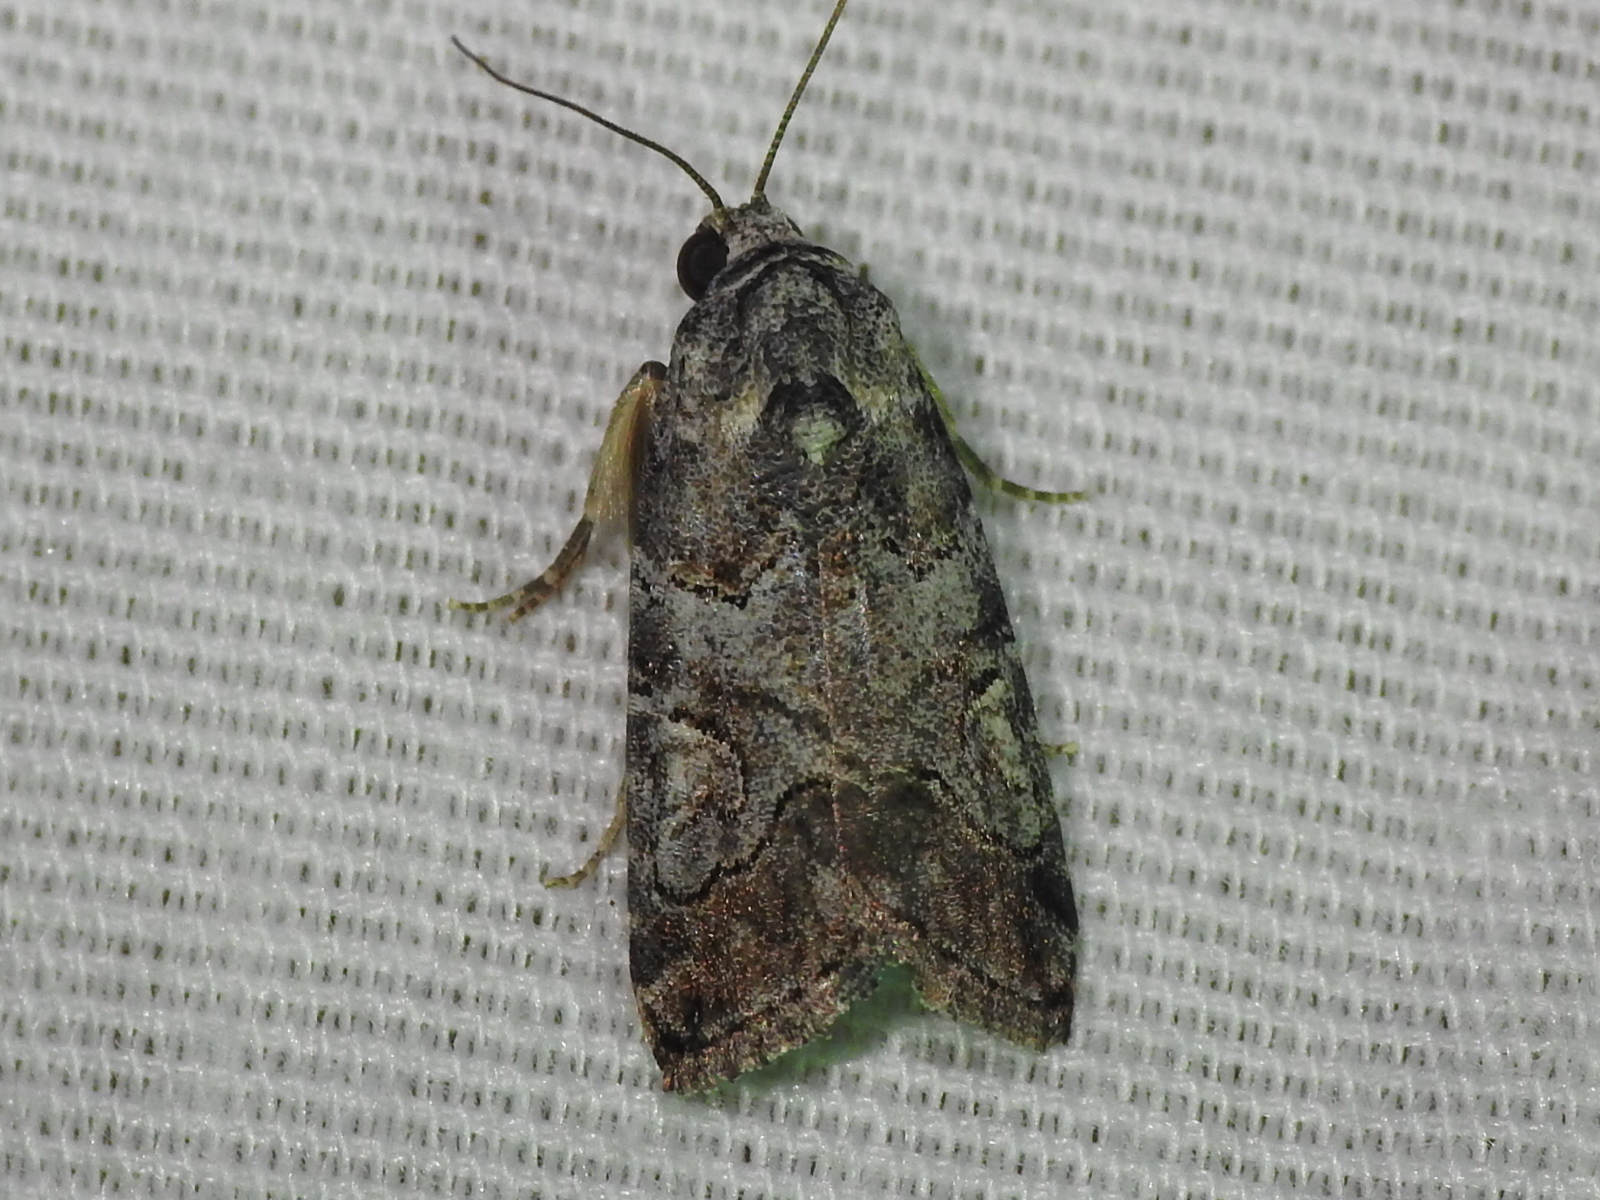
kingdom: Animalia
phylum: Arthropoda
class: Insecta
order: Lepidoptera
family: Noctuidae
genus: Metaponpneumata
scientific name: Metaponpneumata rogenhoferi
